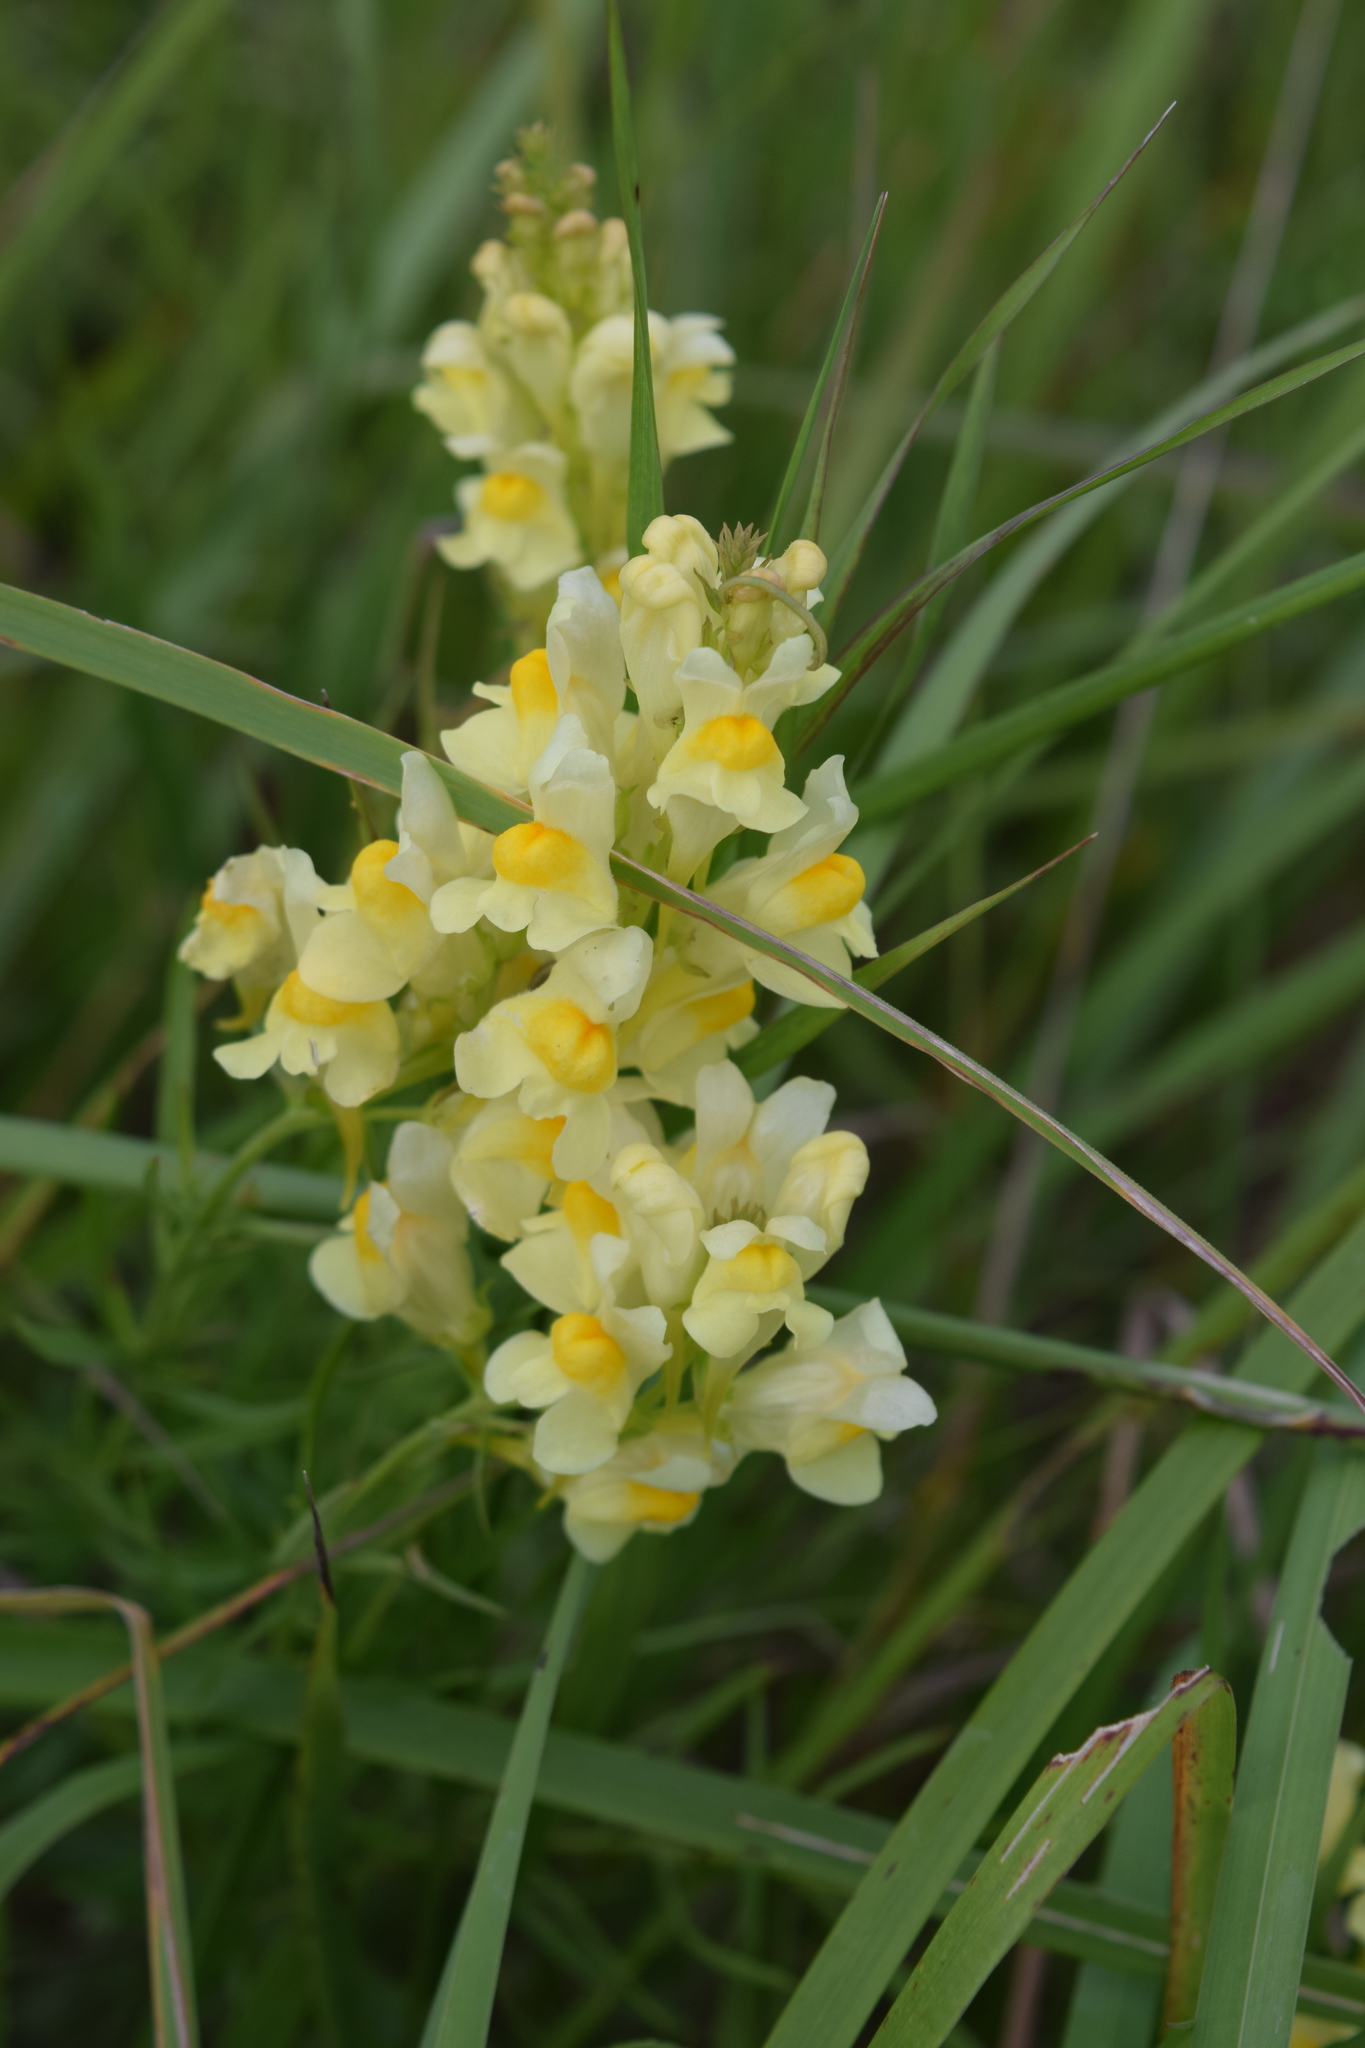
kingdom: Plantae
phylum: Tracheophyta
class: Magnoliopsida
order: Lamiales
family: Plantaginaceae
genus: Linaria
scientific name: Linaria vulgaris
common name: Butter and eggs
